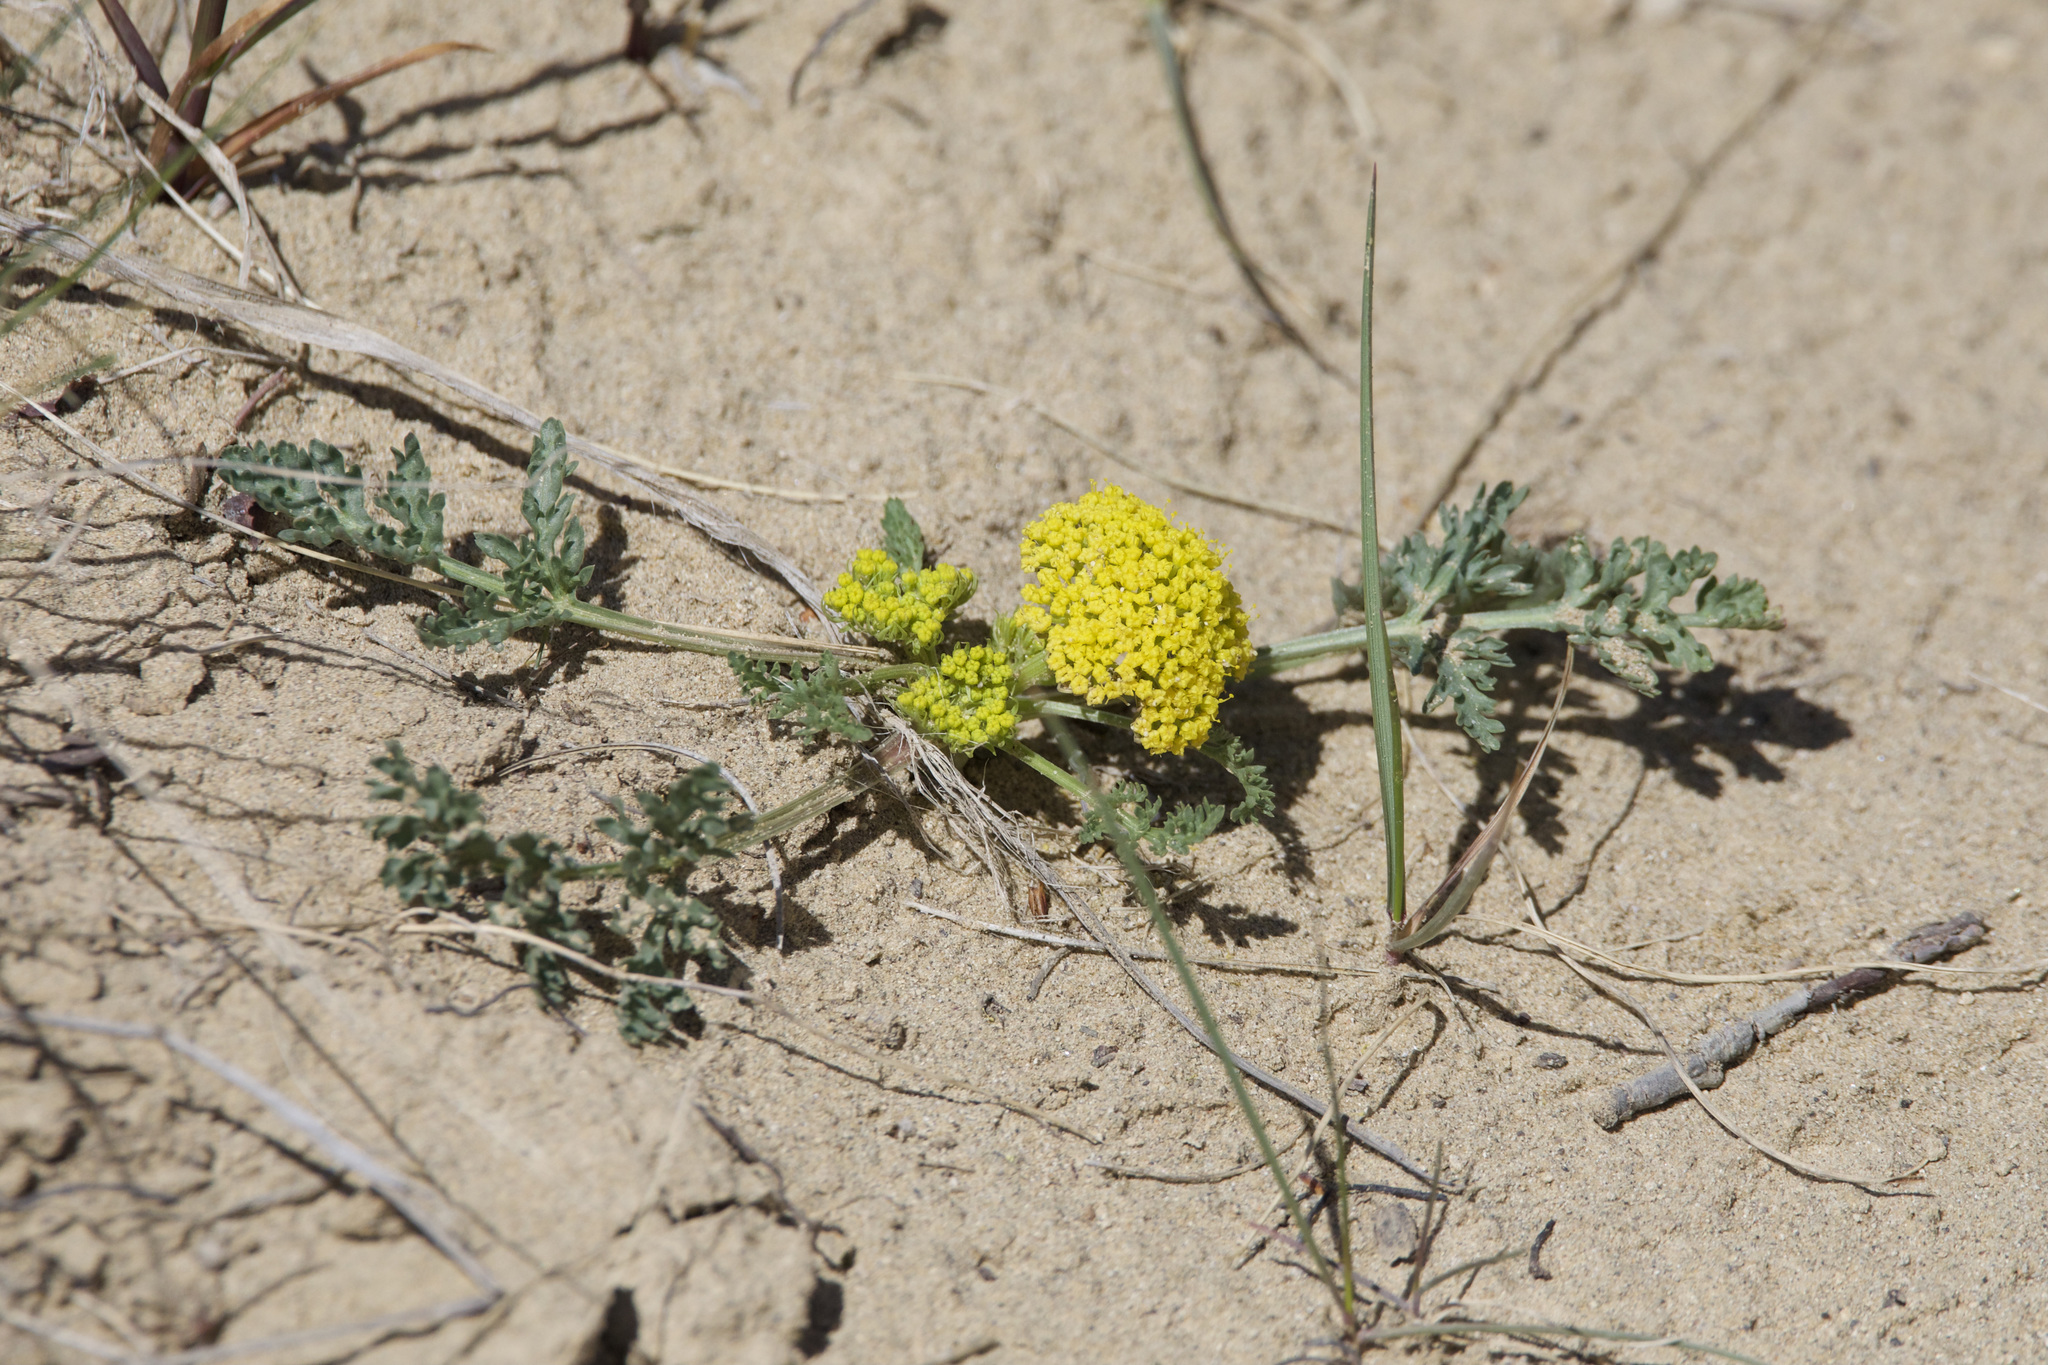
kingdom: Plantae
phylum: Tracheophyta
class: Magnoliopsida
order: Apiales
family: Apiaceae
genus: Musineon
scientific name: Musineon divaricatum
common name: Plains musineon
